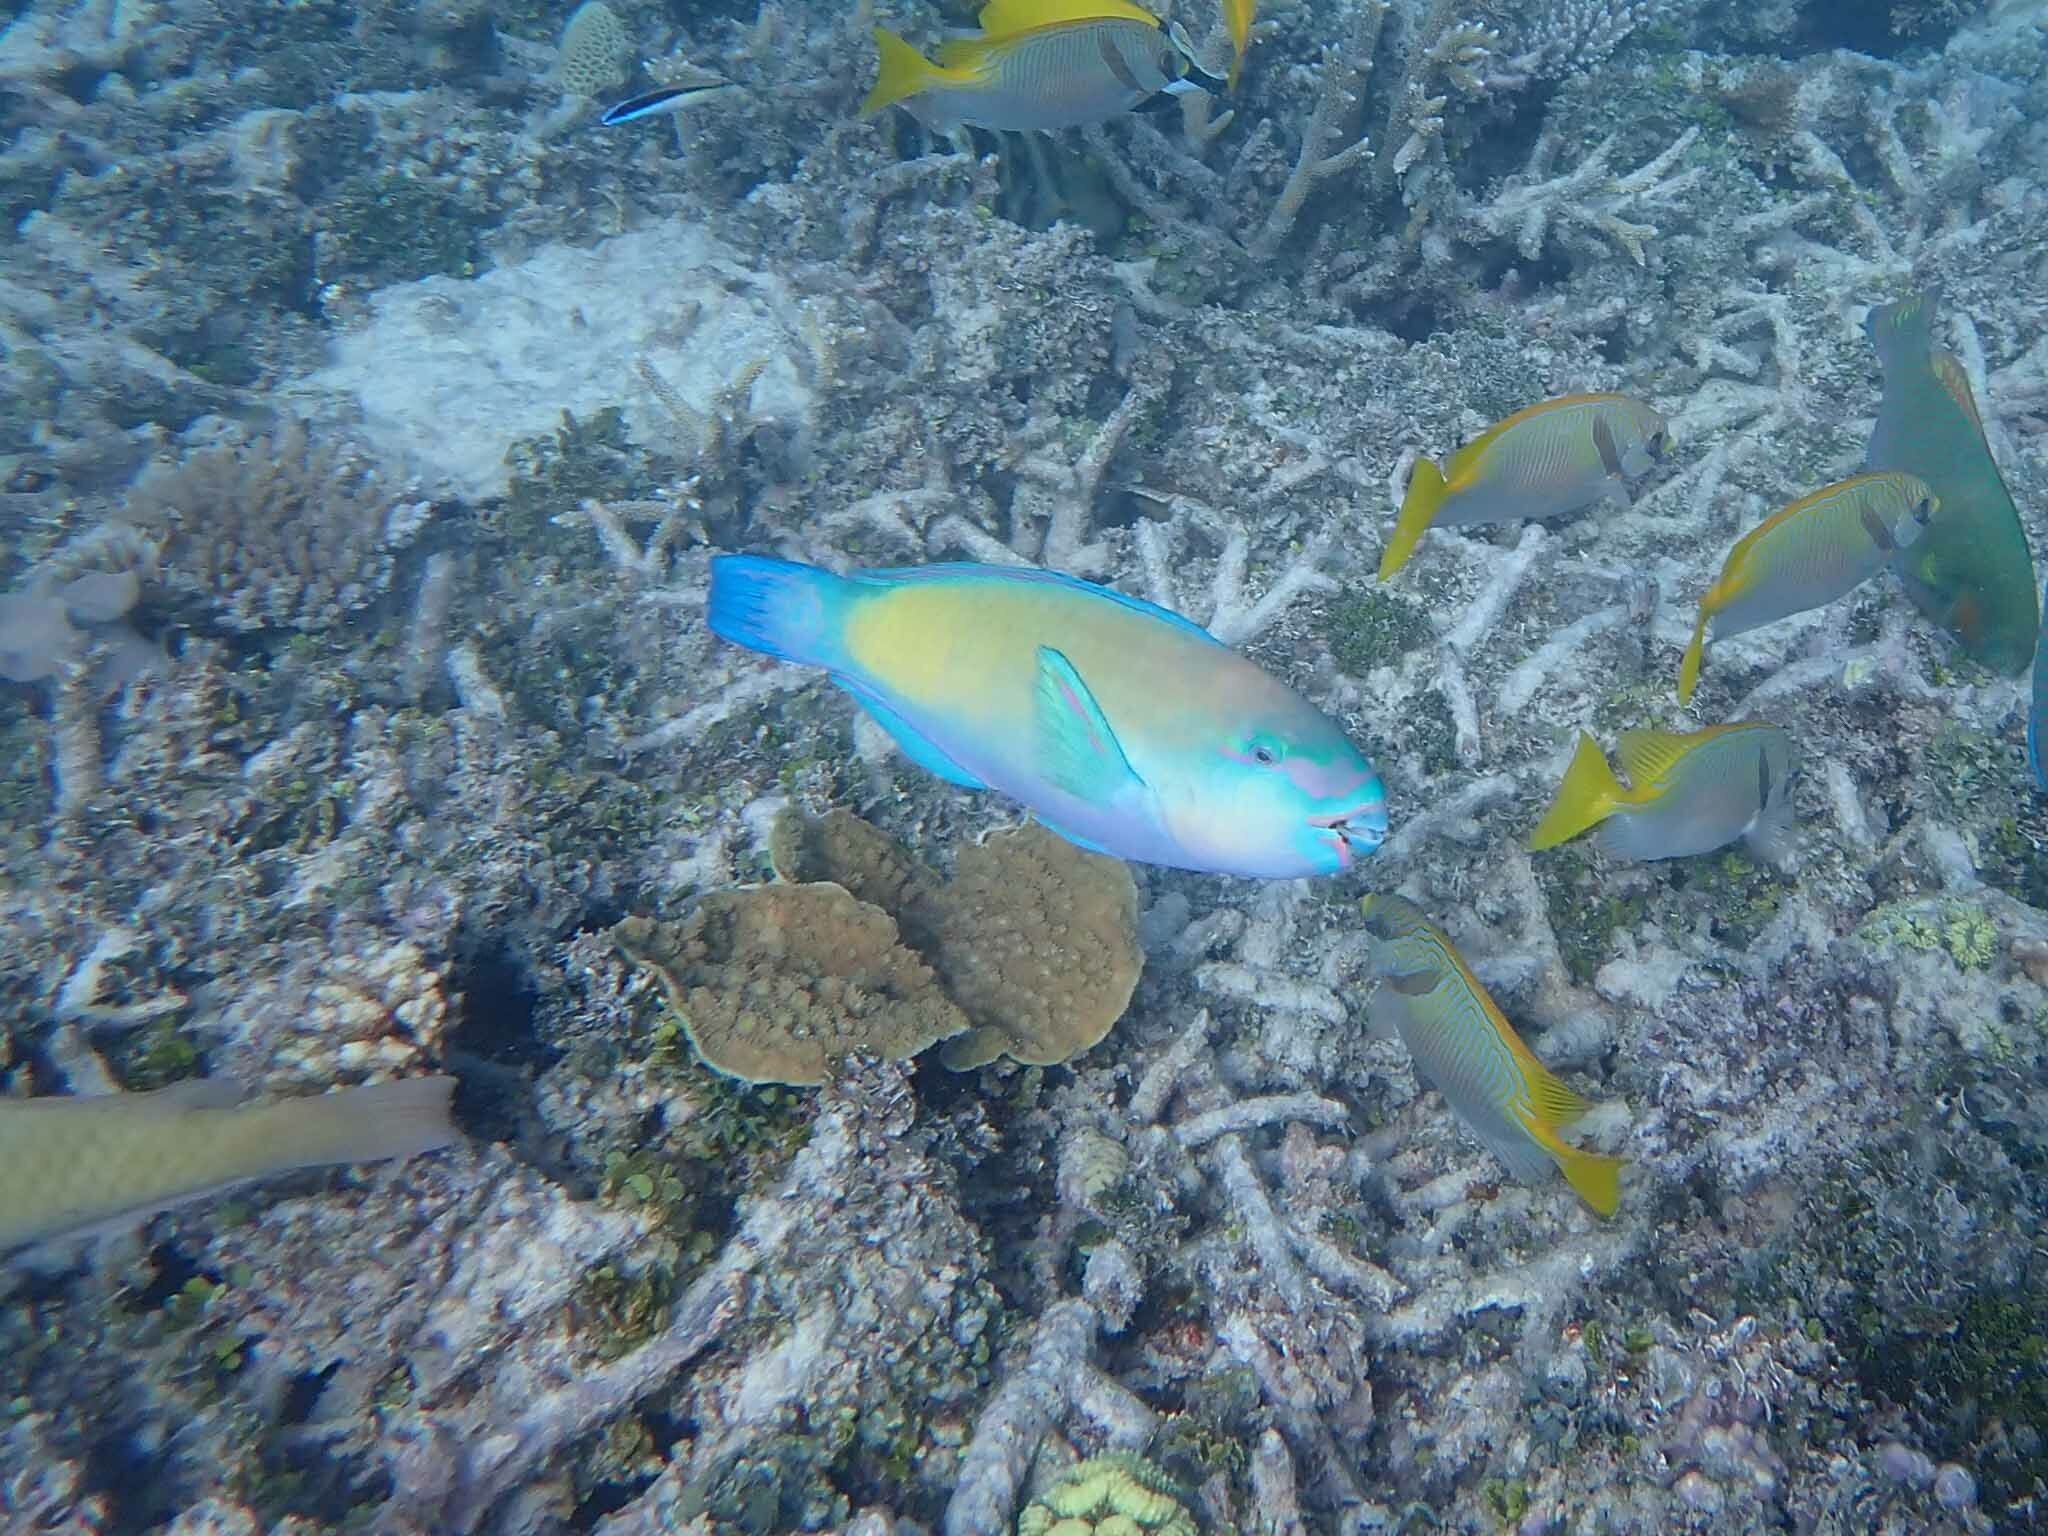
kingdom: Animalia
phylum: Chordata
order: Perciformes
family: Scaridae
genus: Chlorurus
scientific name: Chlorurus spilurus
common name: Bullethead parrotfish
